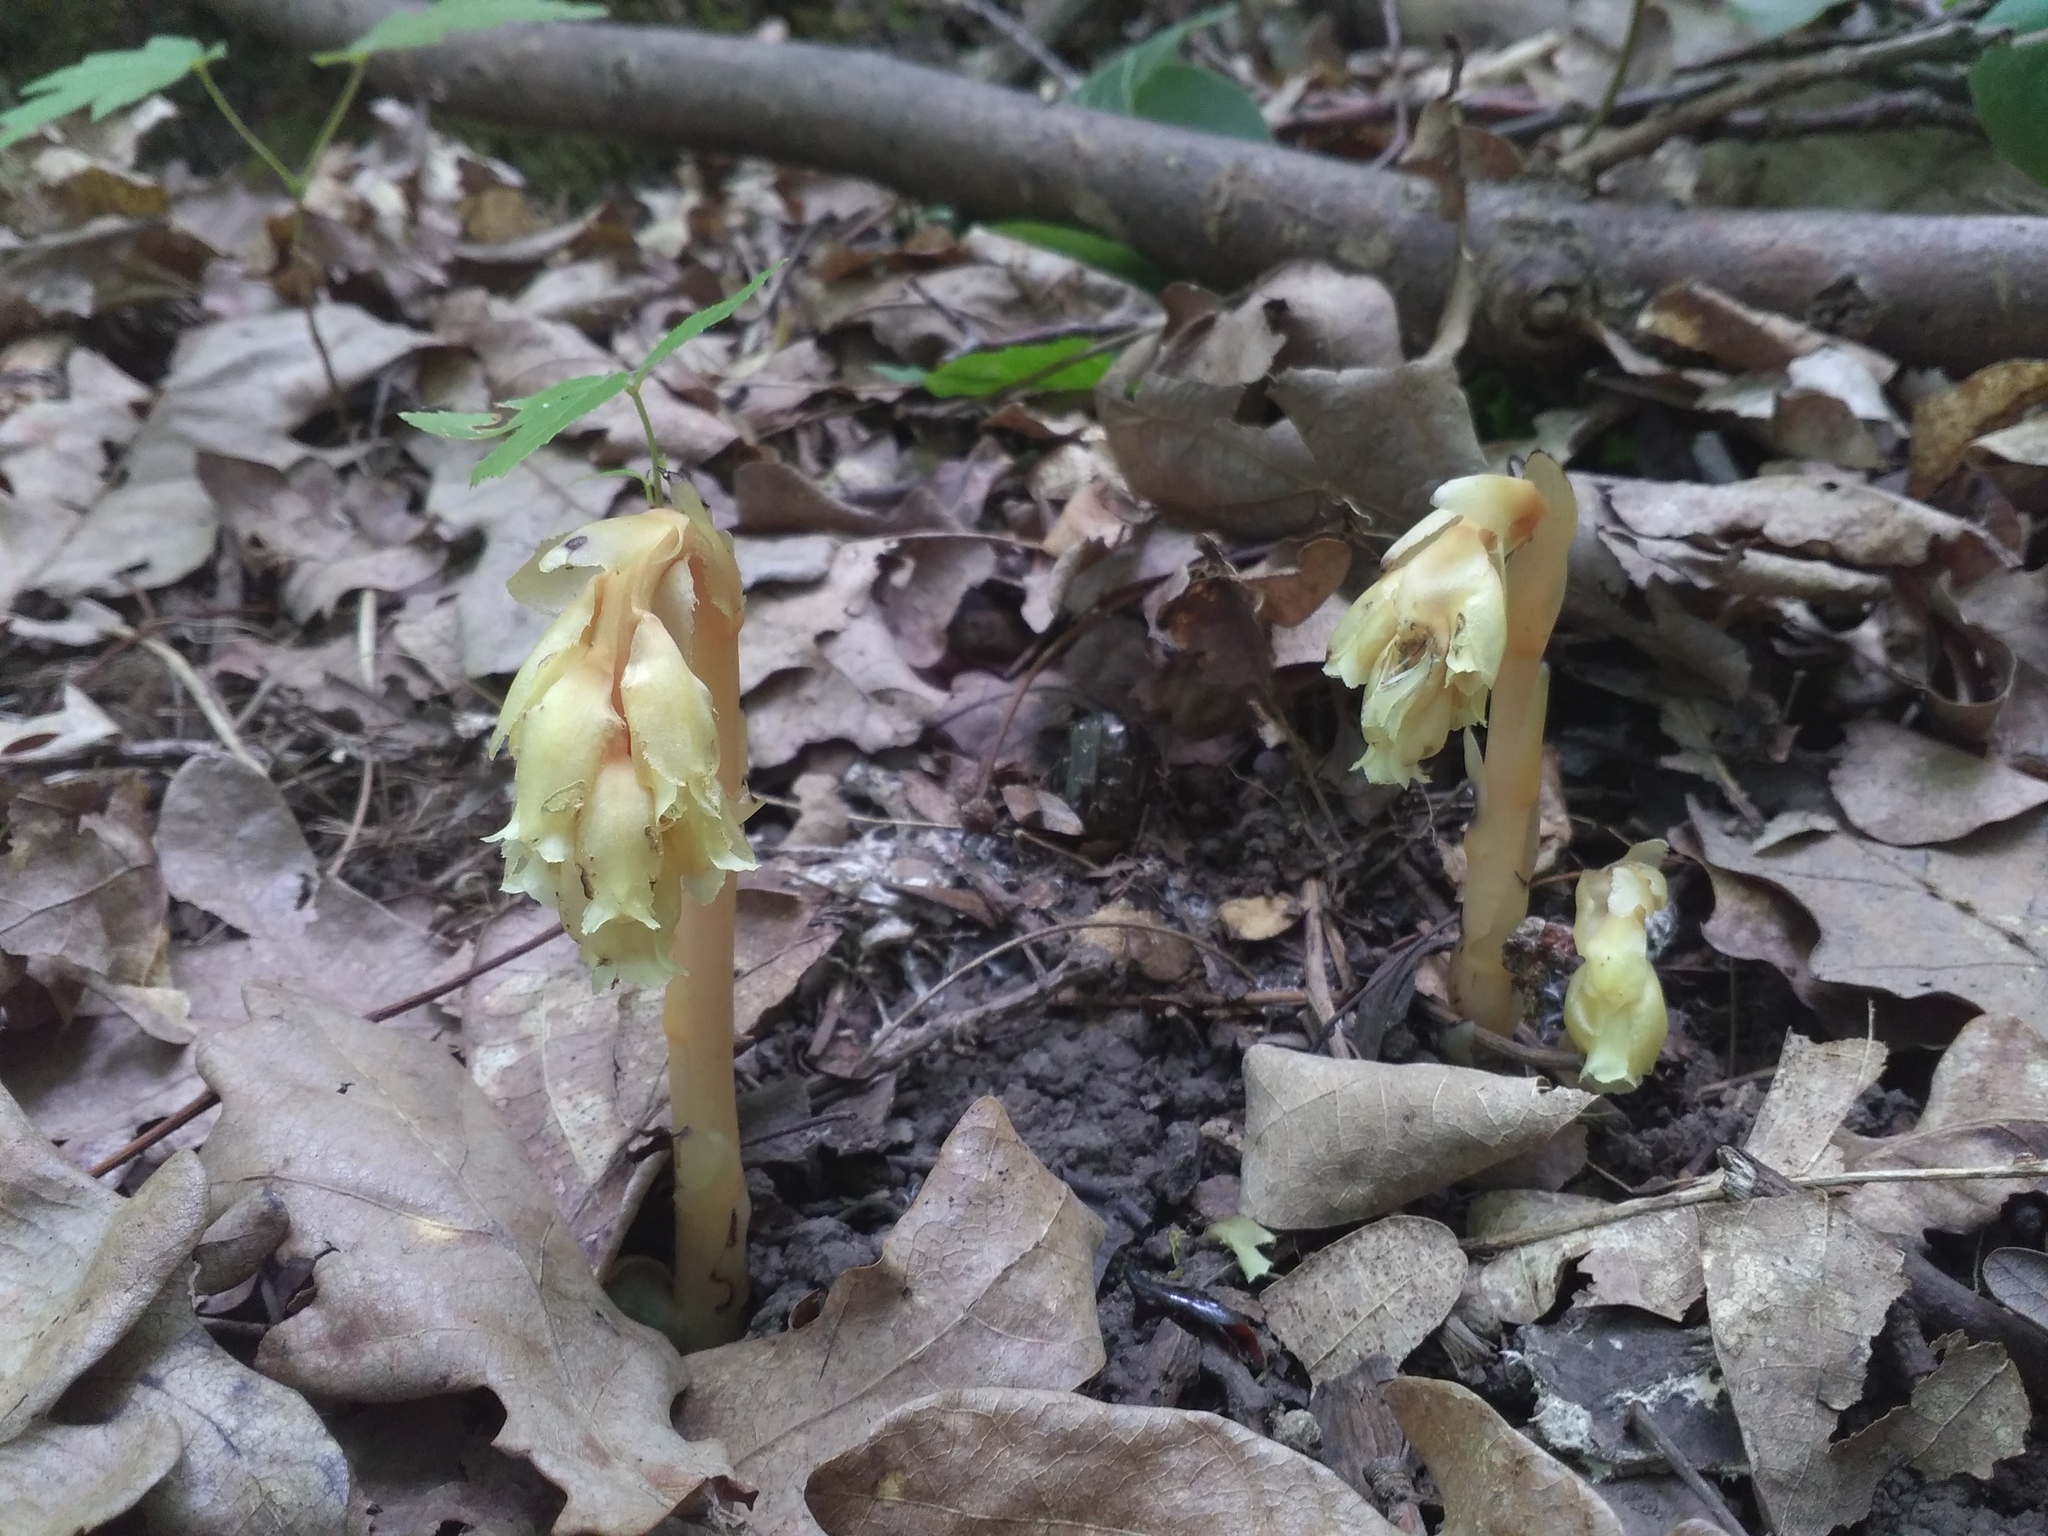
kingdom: Plantae
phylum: Tracheophyta
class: Magnoliopsida
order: Ericales
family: Ericaceae
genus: Hypopitys
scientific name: Hypopitys monotropa
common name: Yellow bird's-nest
